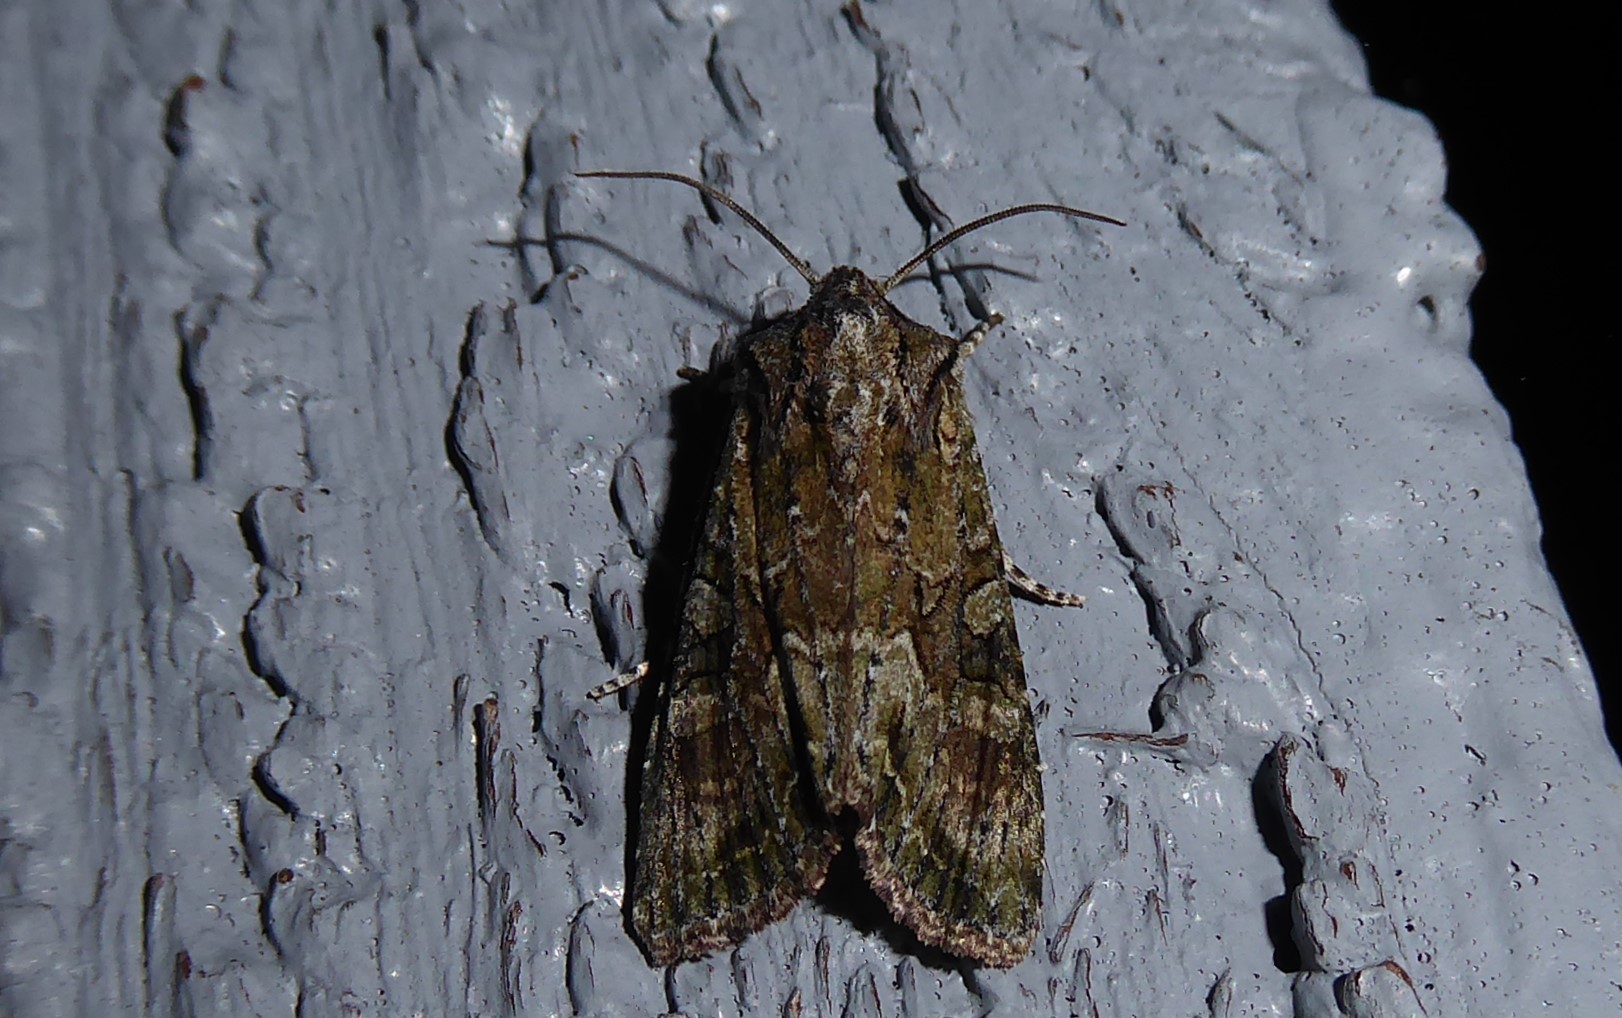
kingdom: Animalia
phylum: Arthropoda
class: Insecta
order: Lepidoptera
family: Noctuidae
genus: Ichneutica
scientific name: Ichneutica mutans
